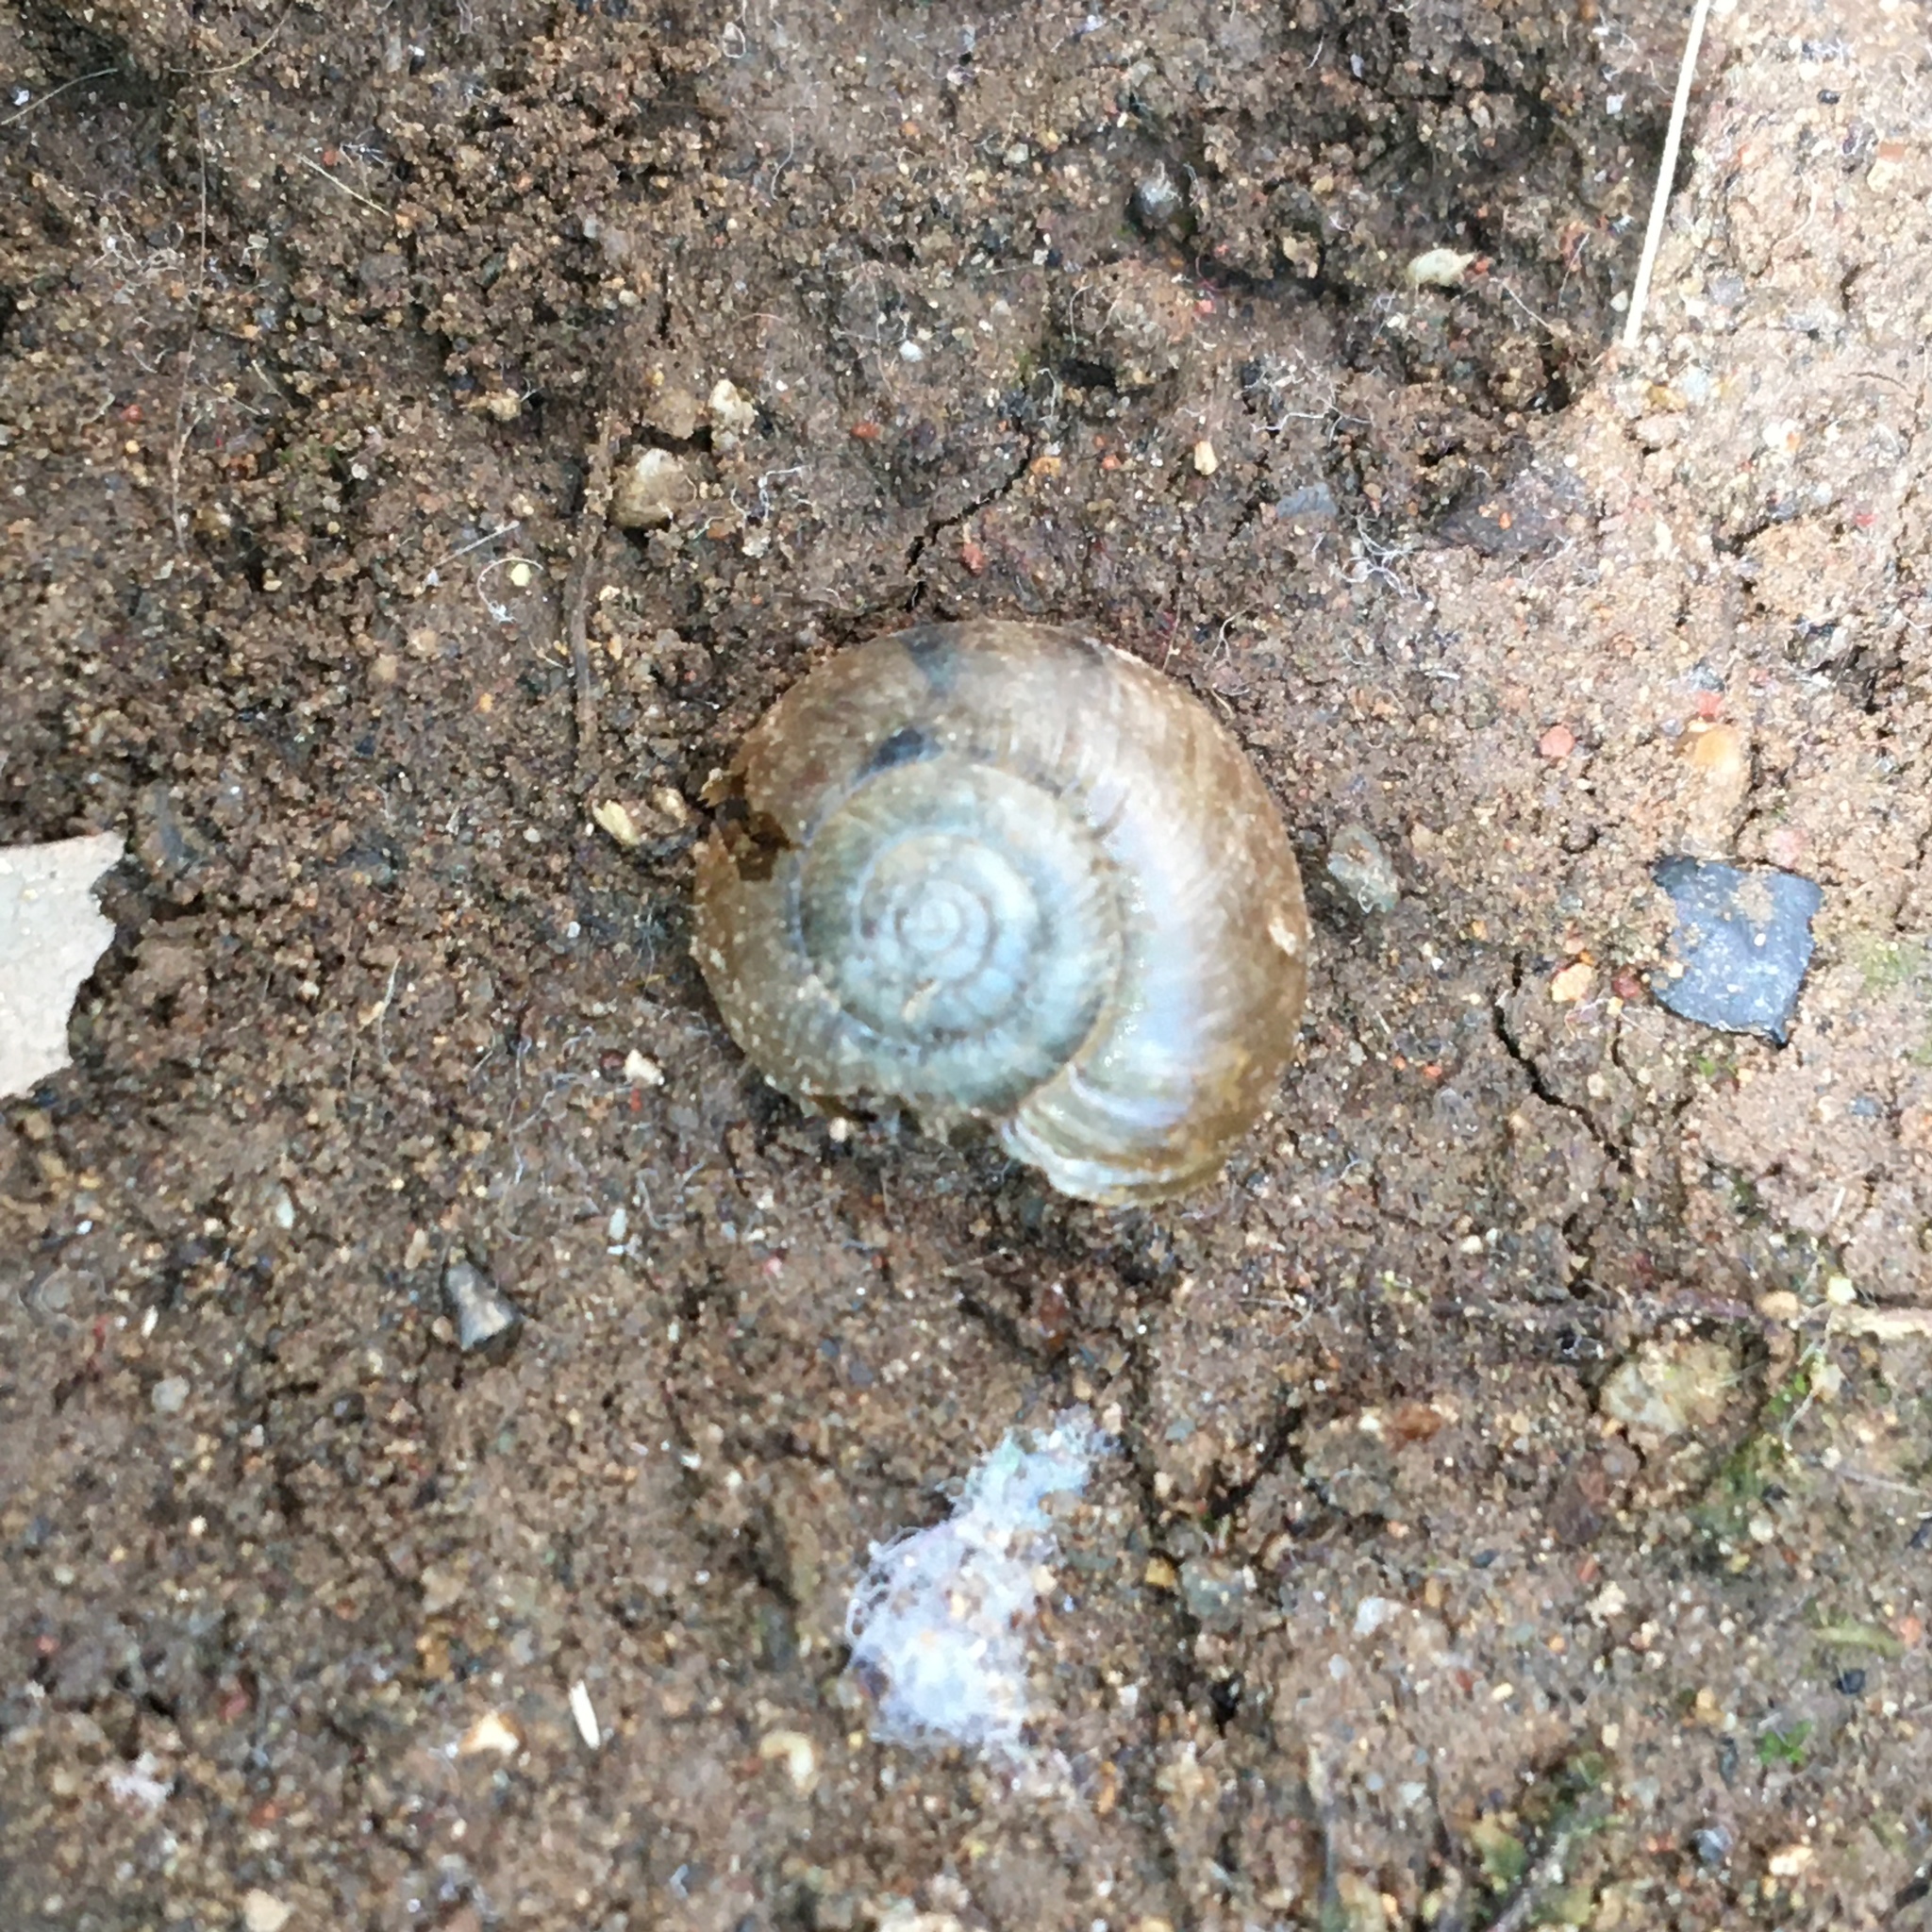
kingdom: Animalia
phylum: Mollusca
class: Gastropoda
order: Stylommatophora
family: Oxychilidae
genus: Oxychilus
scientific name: Oxychilus
